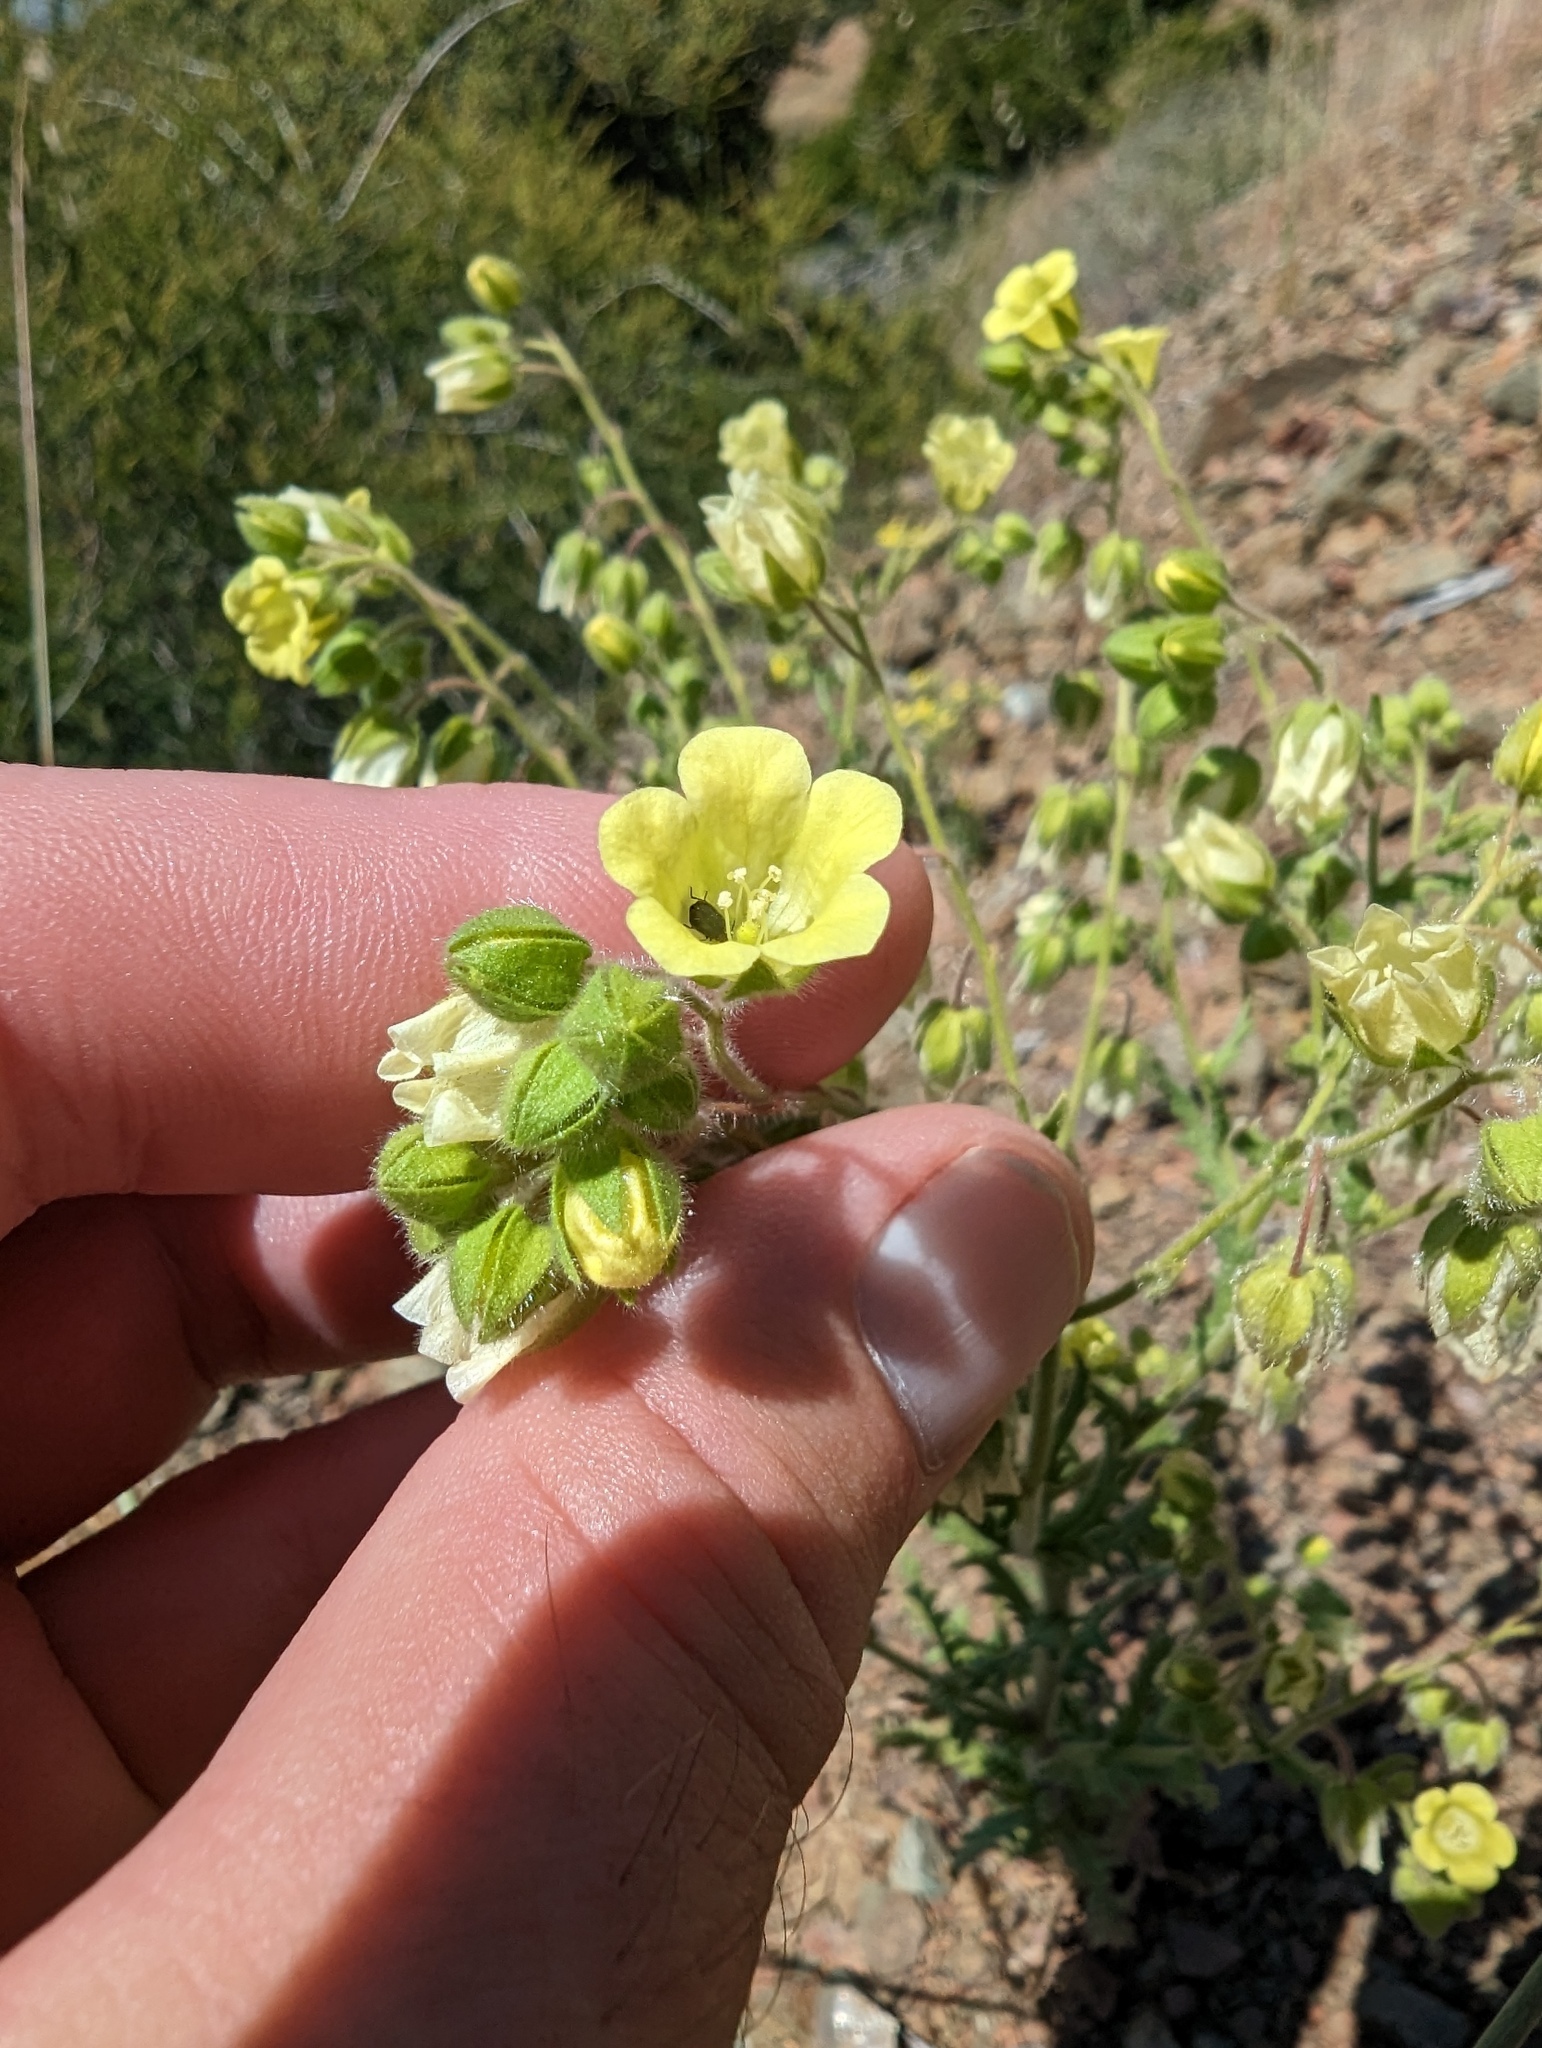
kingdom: Plantae
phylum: Tracheophyta
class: Magnoliopsida
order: Boraginales
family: Hydrophyllaceae
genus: Emmenanthe
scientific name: Emmenanthe penduliflora
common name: Whispering-bells
